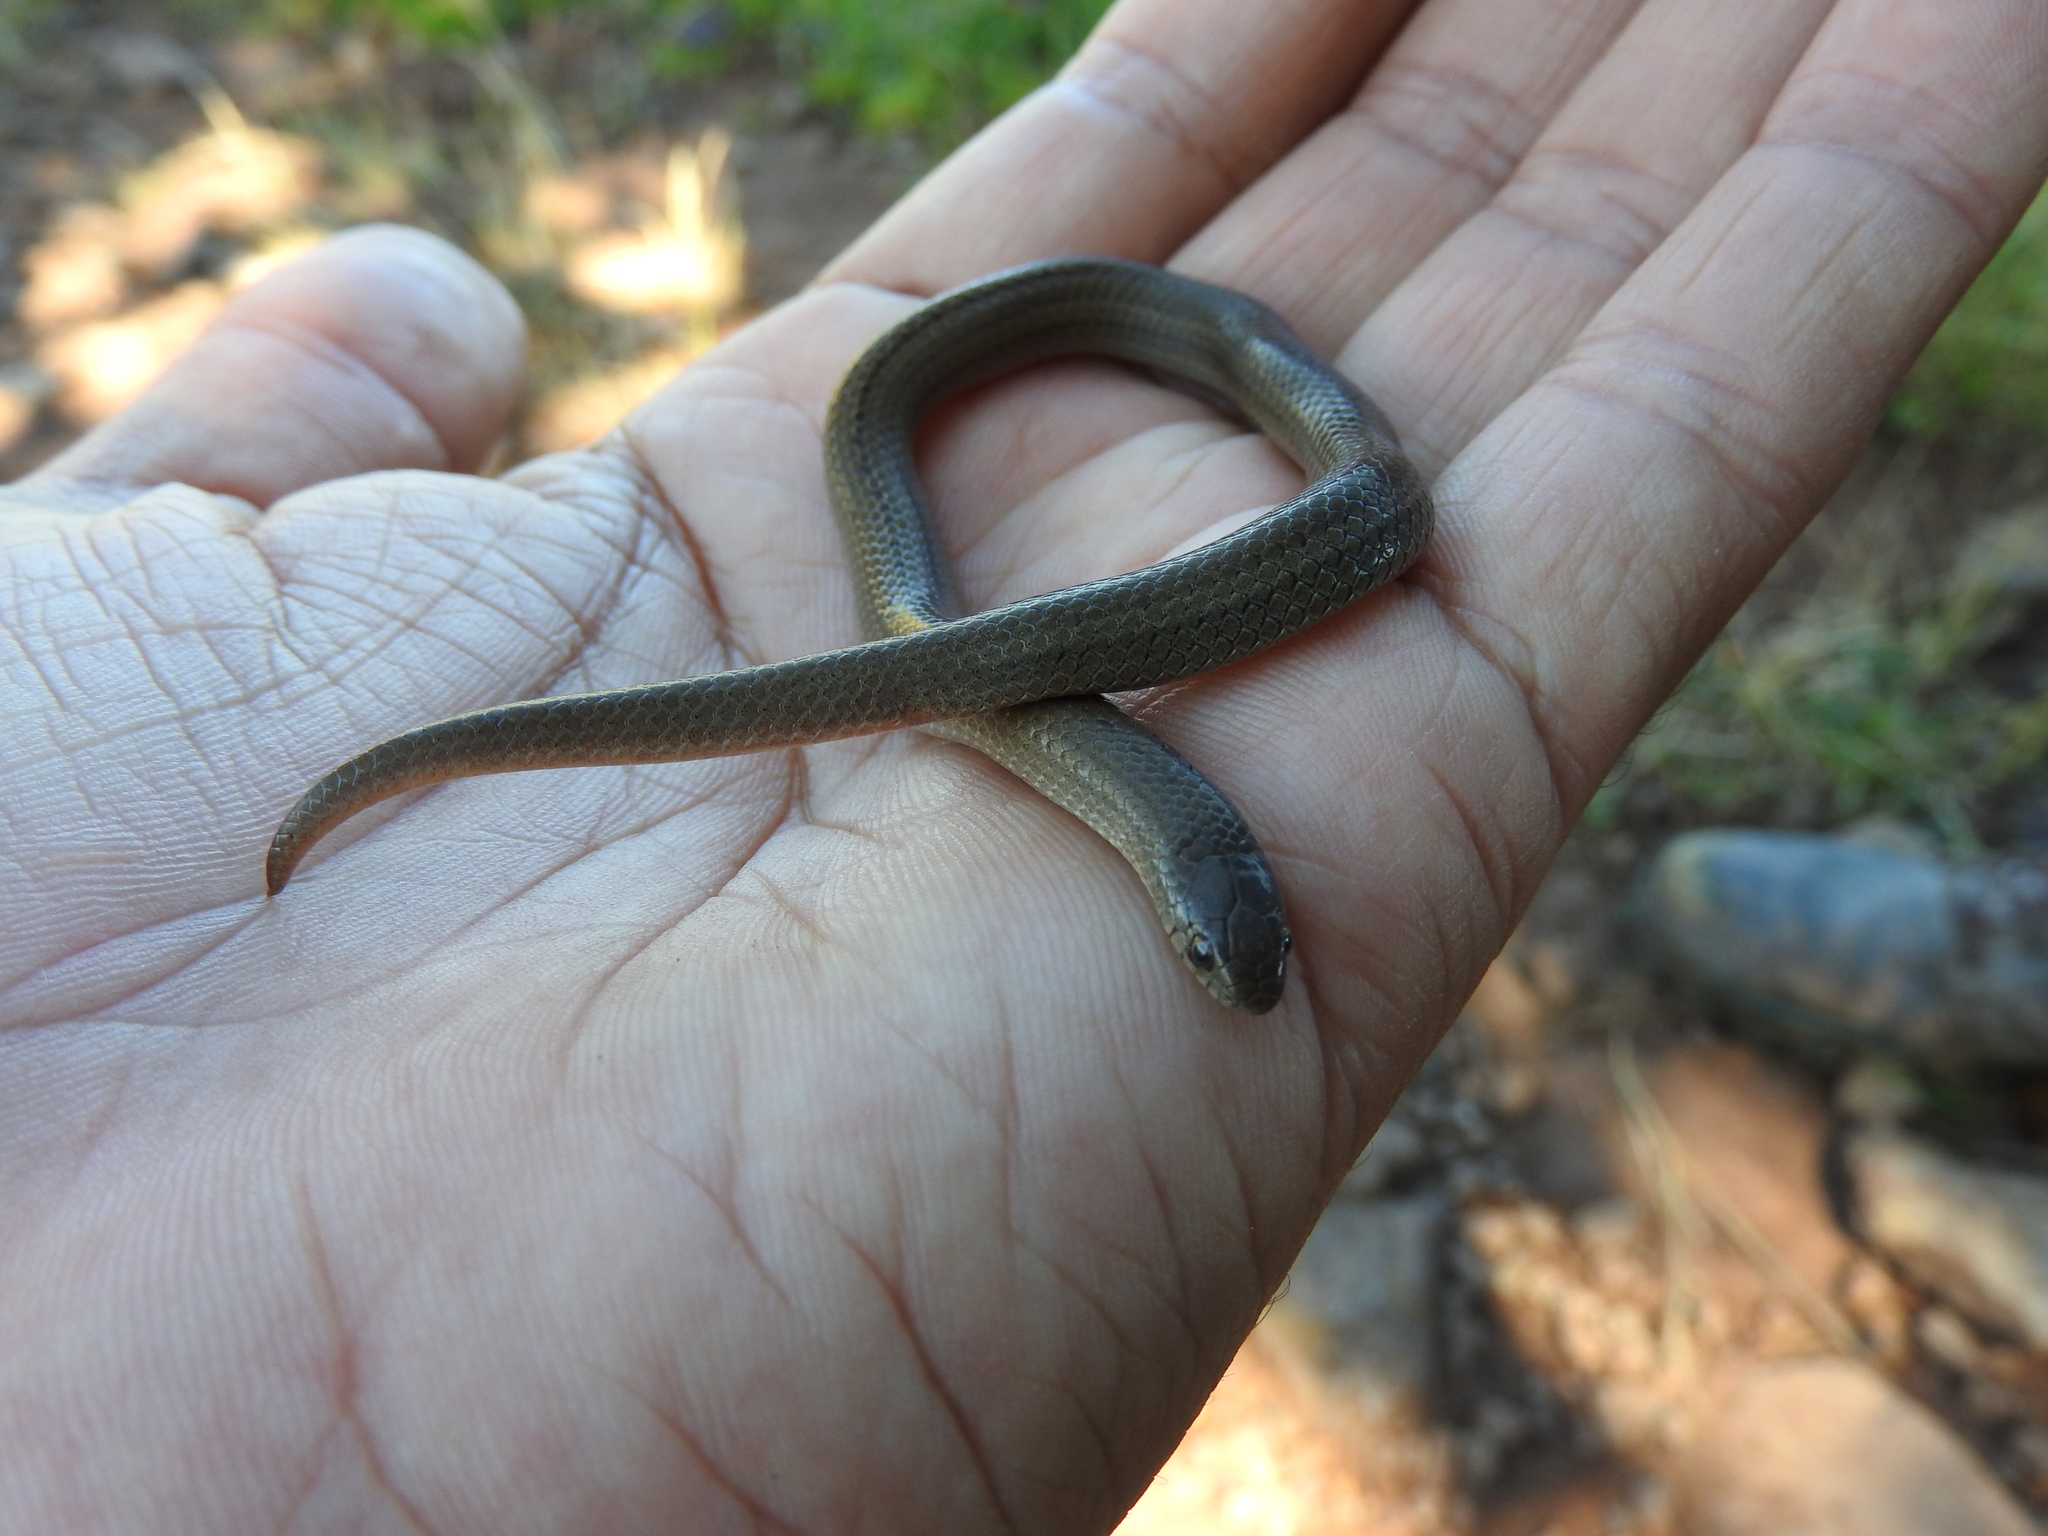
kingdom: Animalia
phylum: Chordata
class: Squamata
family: Colubridae
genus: Conopsis
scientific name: Conopsis nasus
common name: Largenose earth snake
